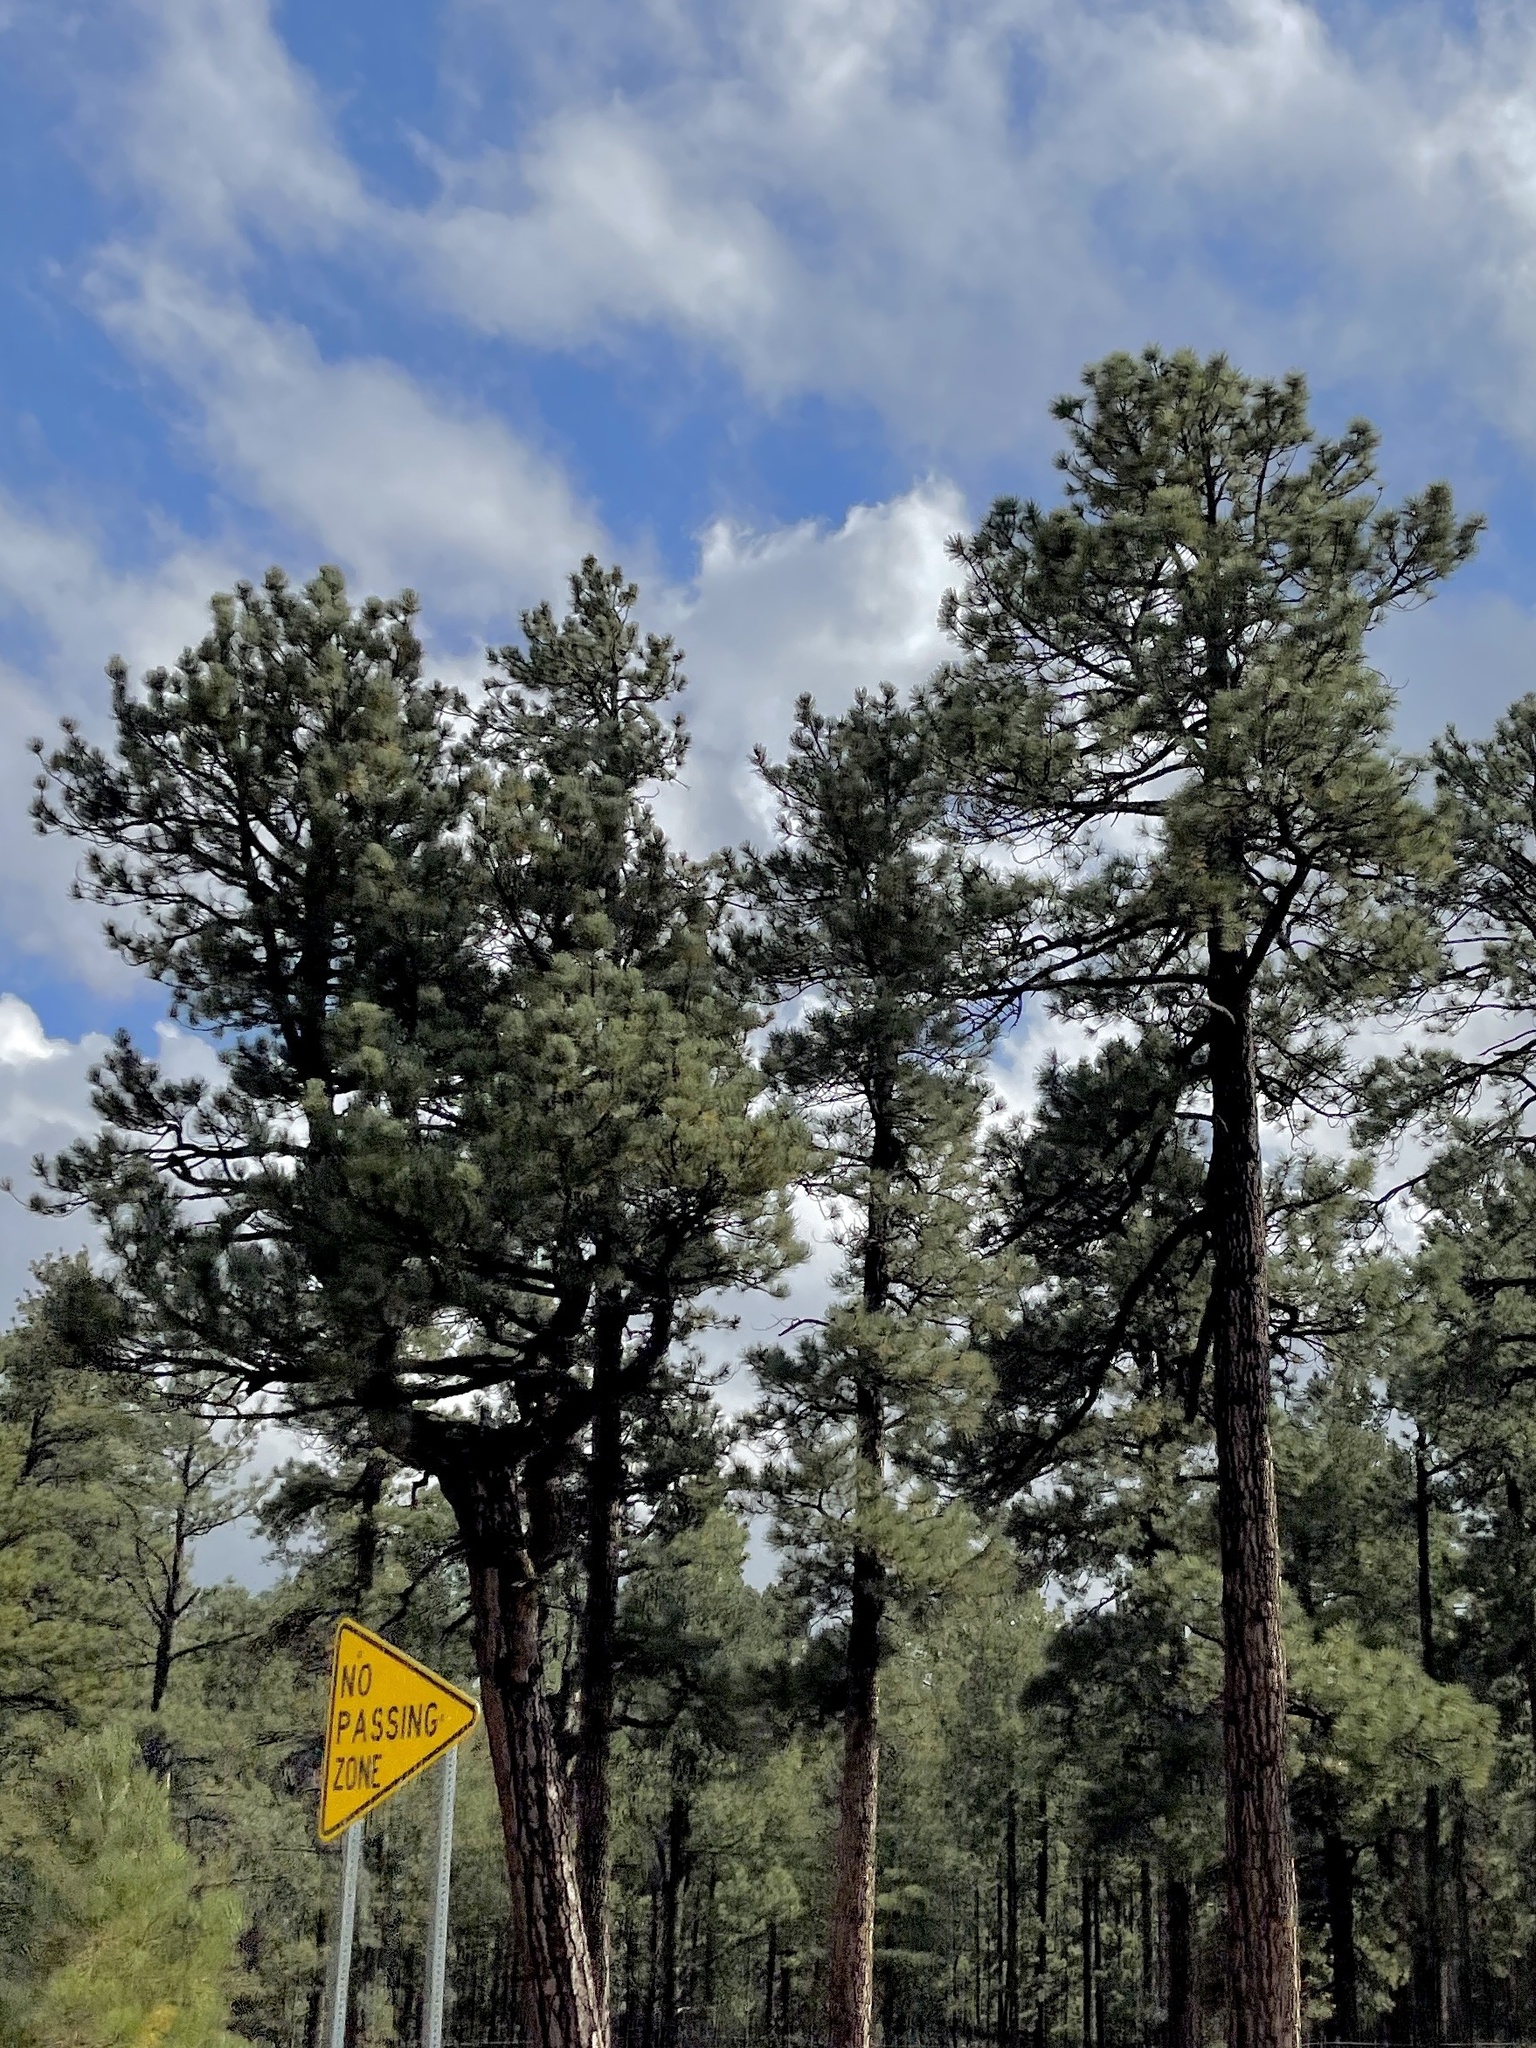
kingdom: Plantae
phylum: Tracheophyta
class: Pinopsida
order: Pinales
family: Pinaceae
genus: Pinus
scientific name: Pinus ponderosa
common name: Western yellow-pine
